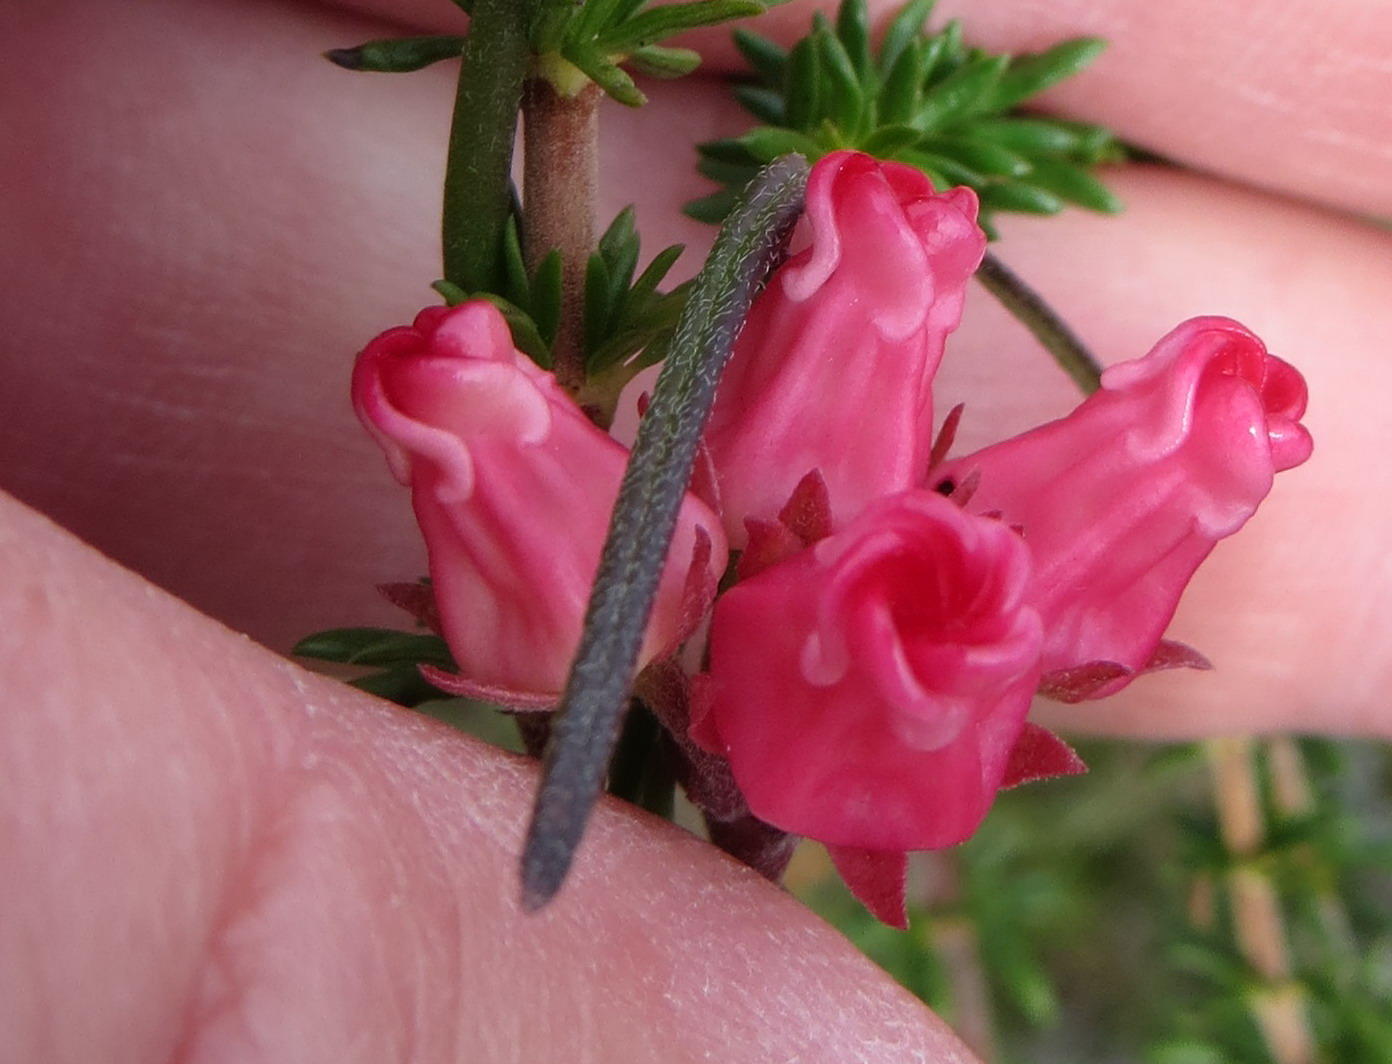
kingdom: Plantae
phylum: Tracheophyta
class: Magnoliopsida
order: Gentianales
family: Apocynaceae
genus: Microloma
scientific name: Microloma tenuifolium
